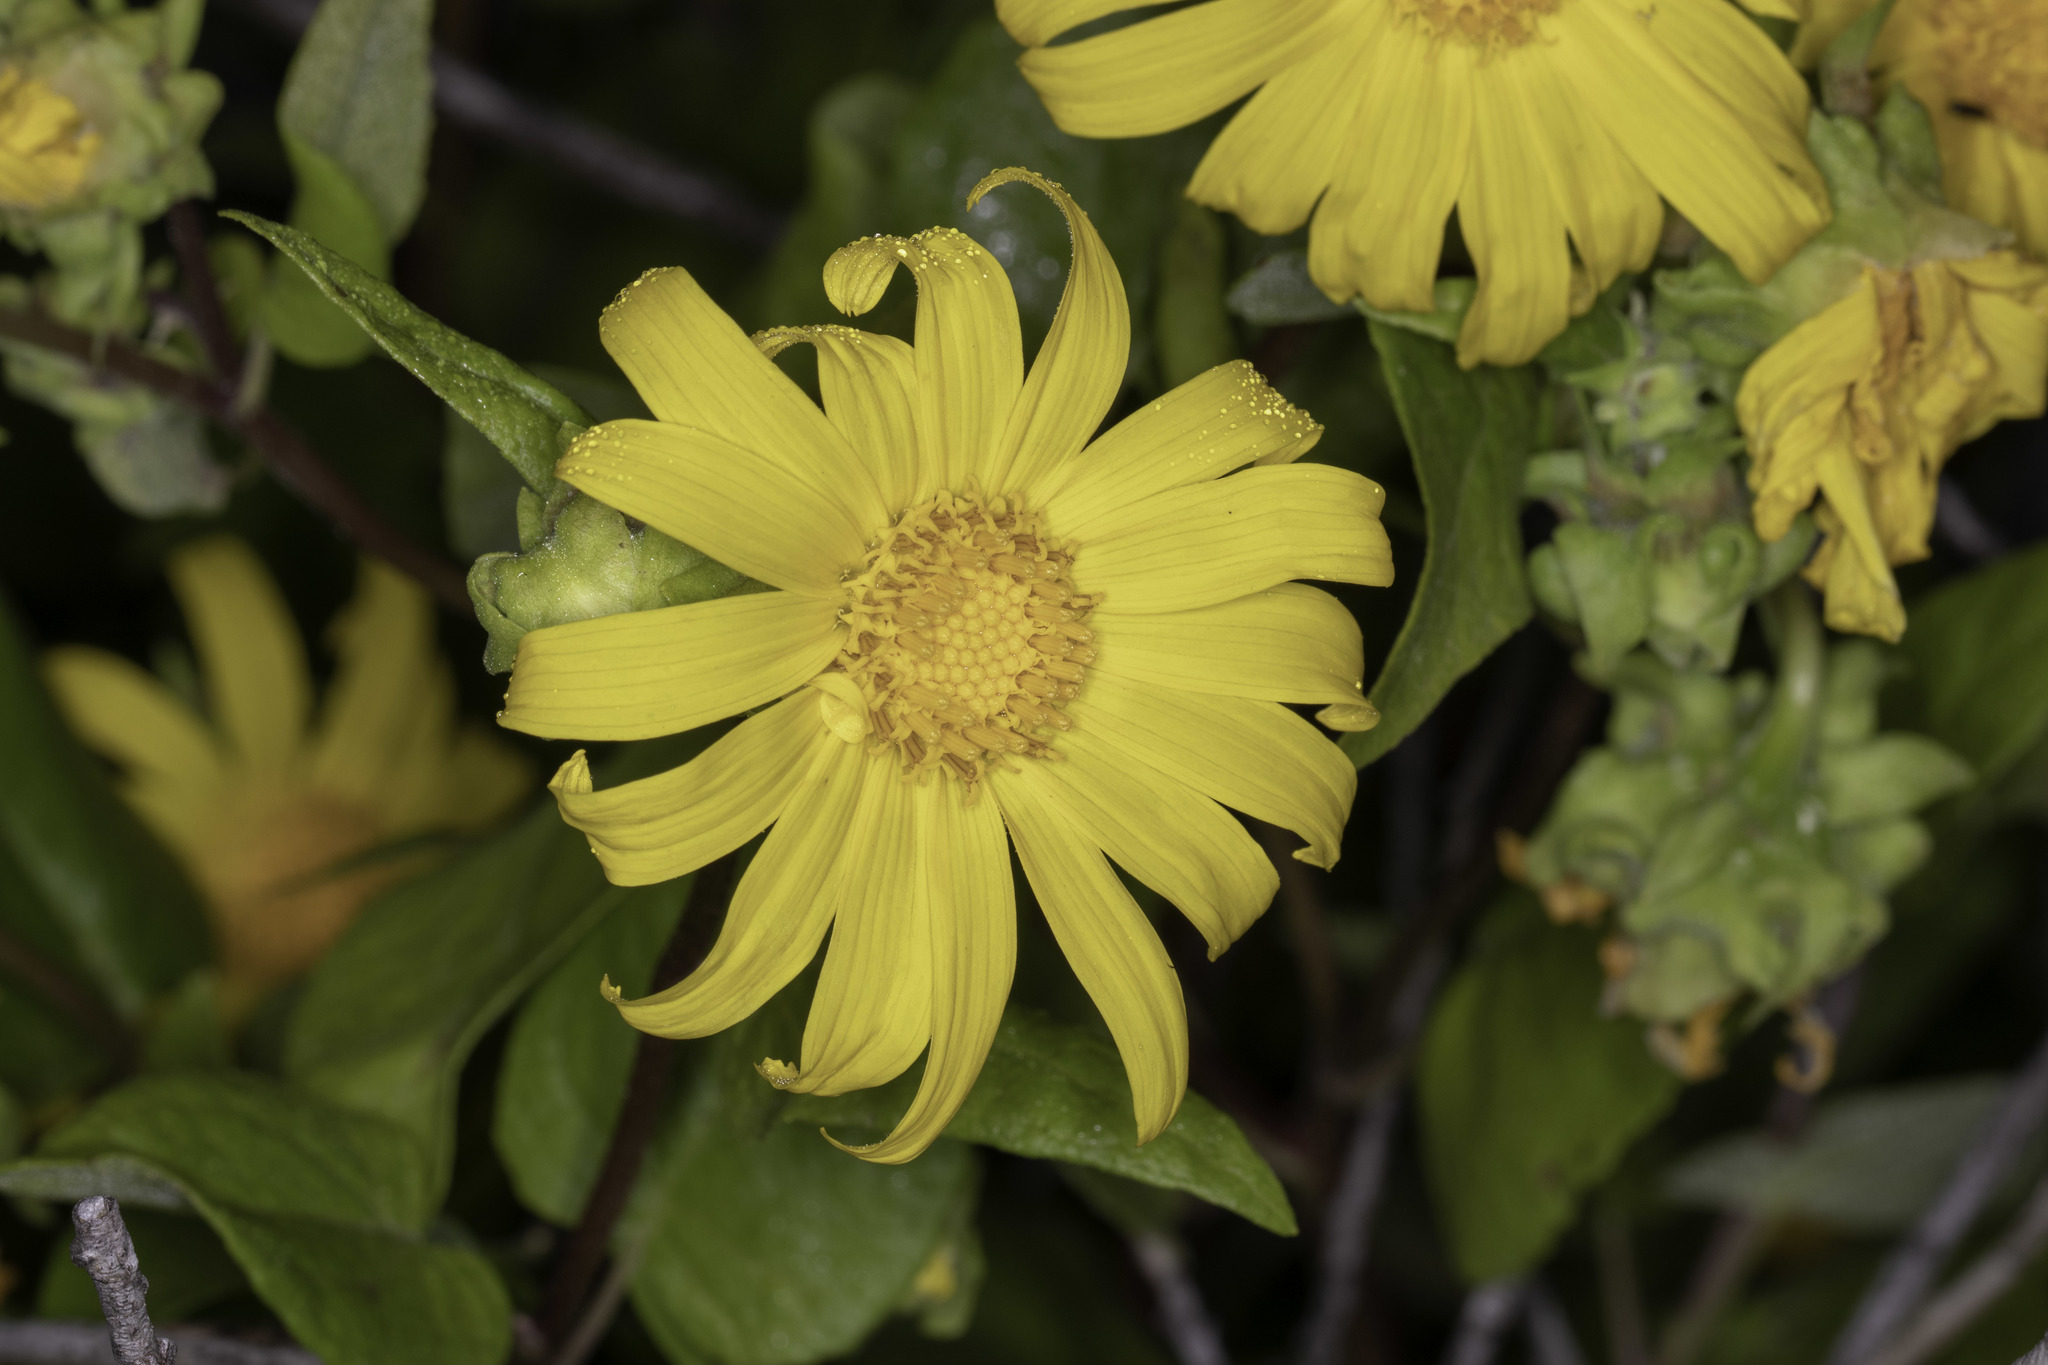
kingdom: Plantae
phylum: Tracheophyta
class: Magnoliopsida
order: Asterales
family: Asteraceae
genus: Venegasia
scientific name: Venegasia carpesioides
